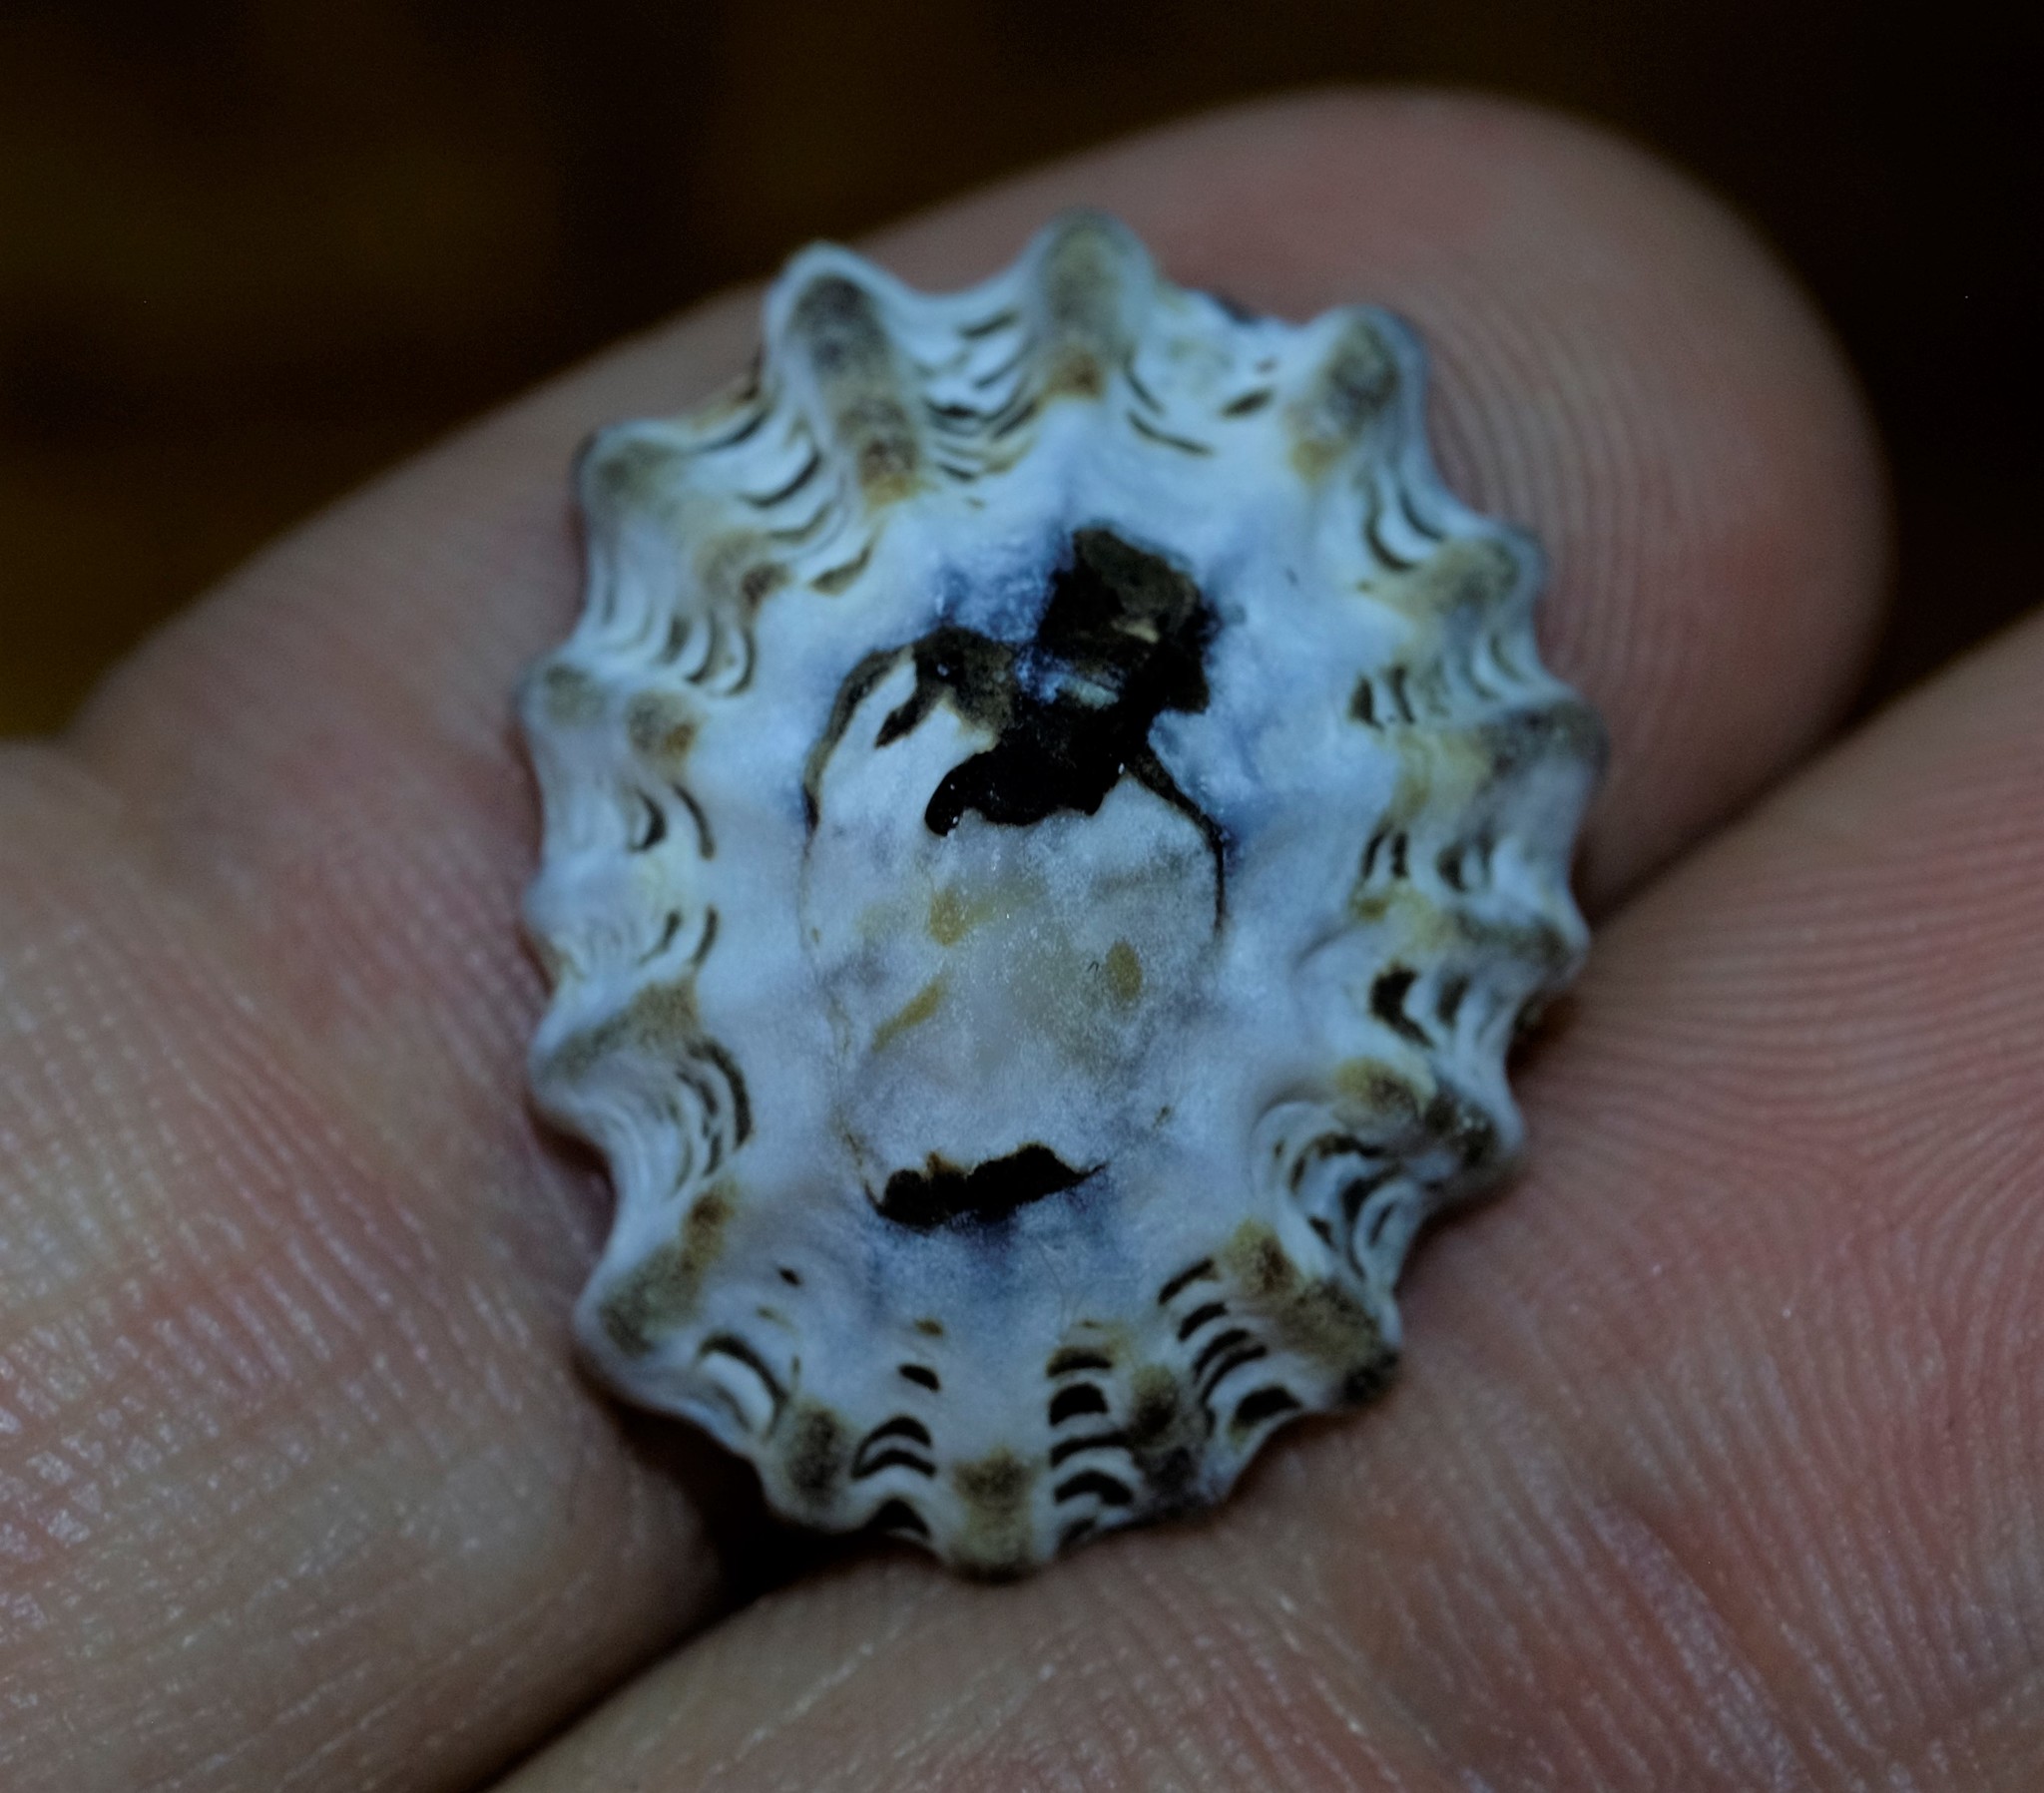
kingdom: Animalia
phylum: Mollusca
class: Gastropoda
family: Lottiidae
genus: Patelloida
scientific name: Patelloida alticostata
